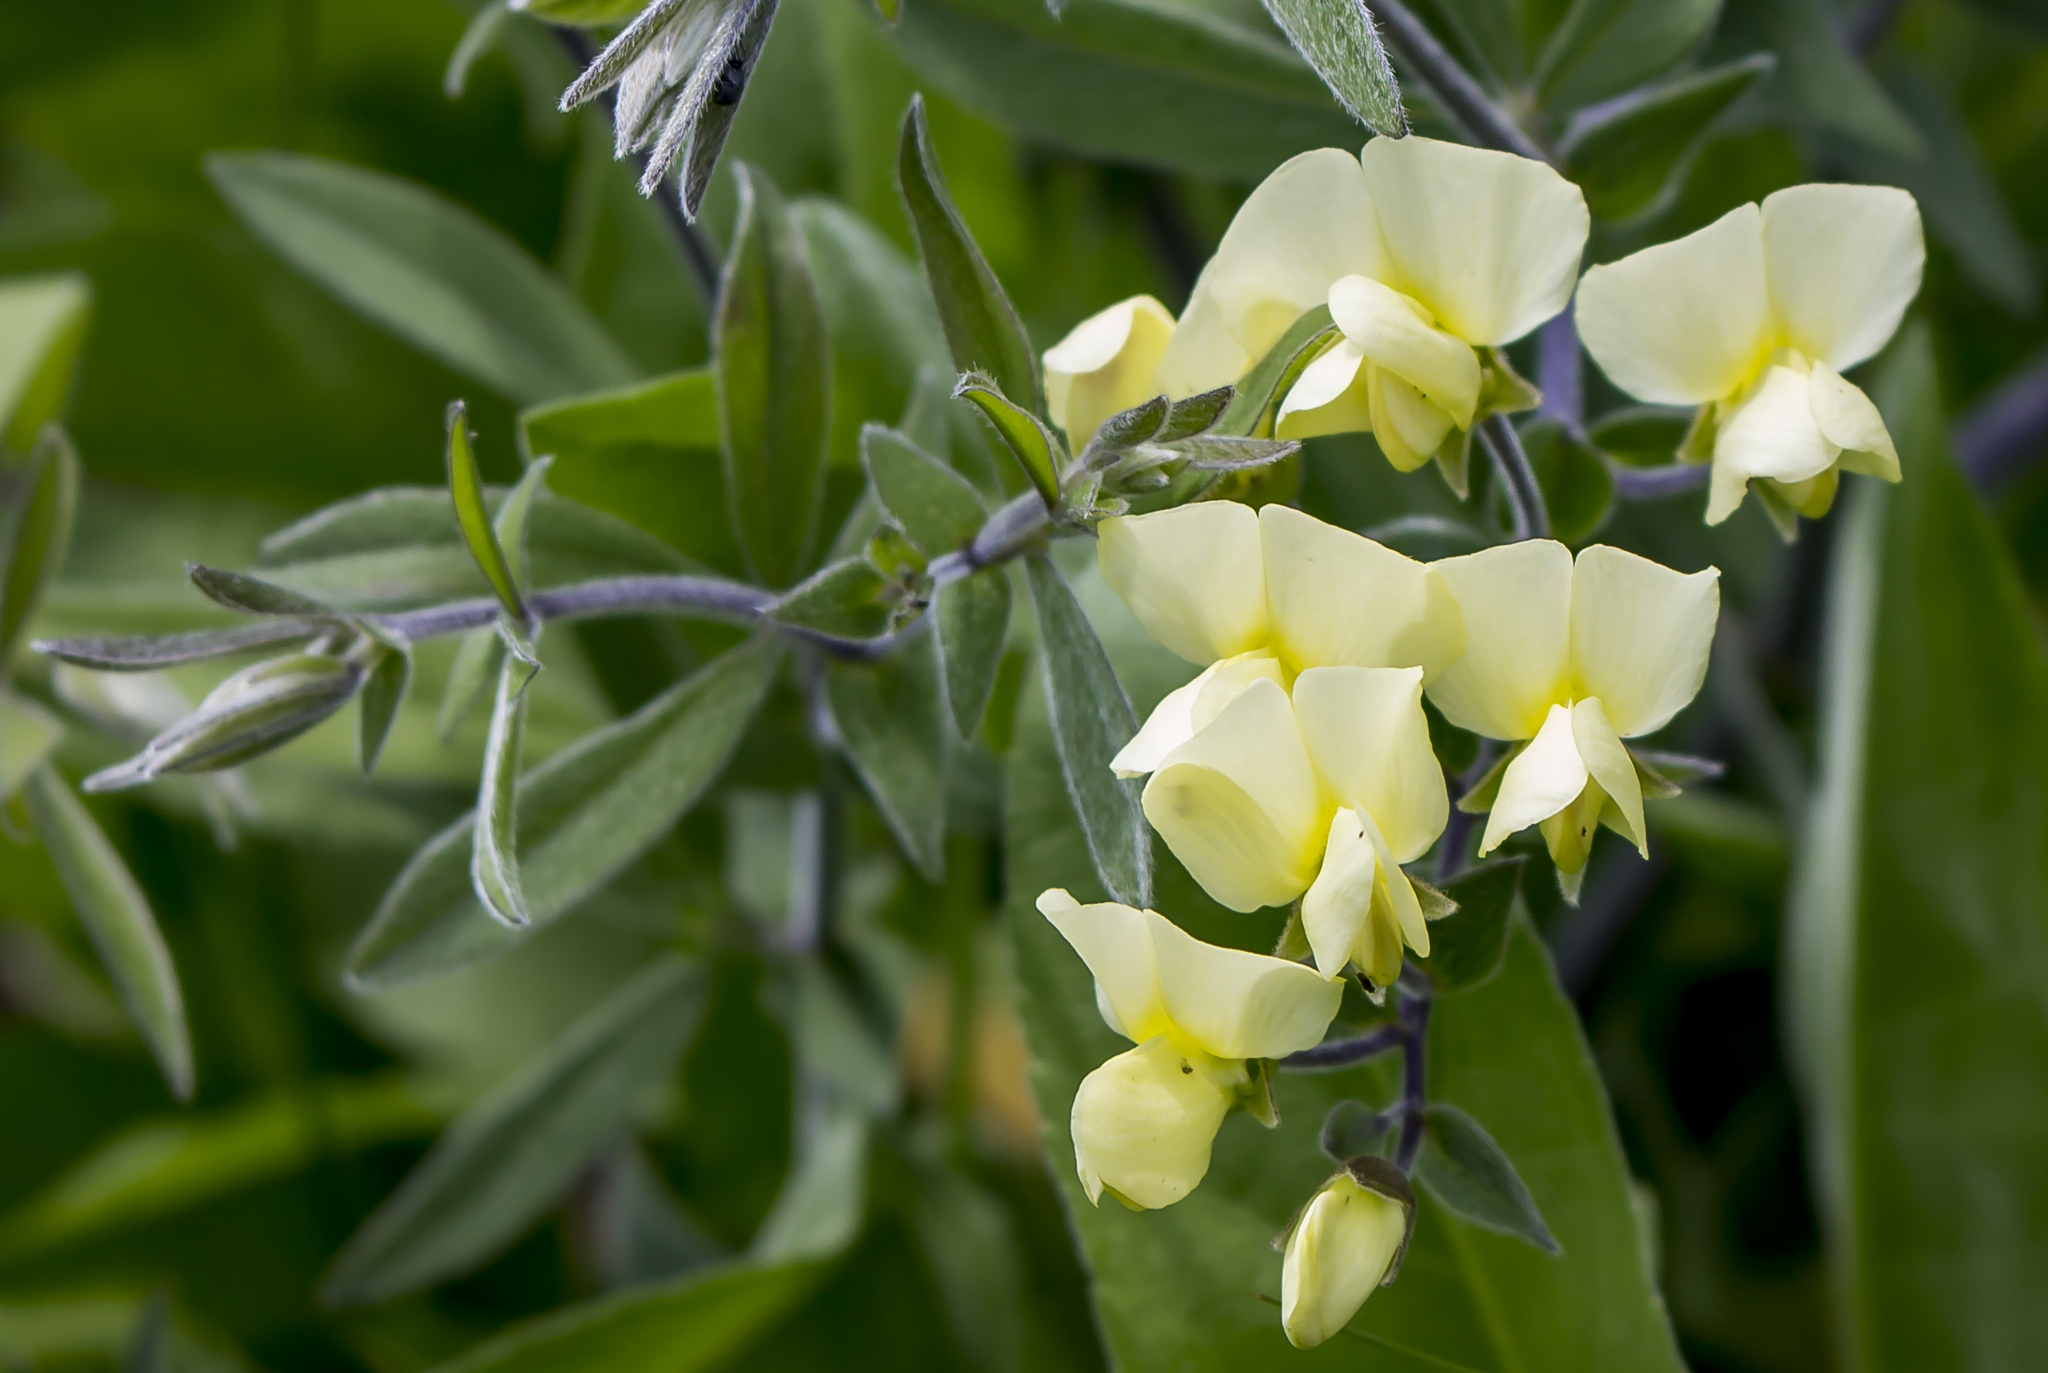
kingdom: Plantae
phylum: Tracheophyta
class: Magnoliopsida
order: Fabales
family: Fabaceae
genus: Baptisia
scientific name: Baptisia bracteata
